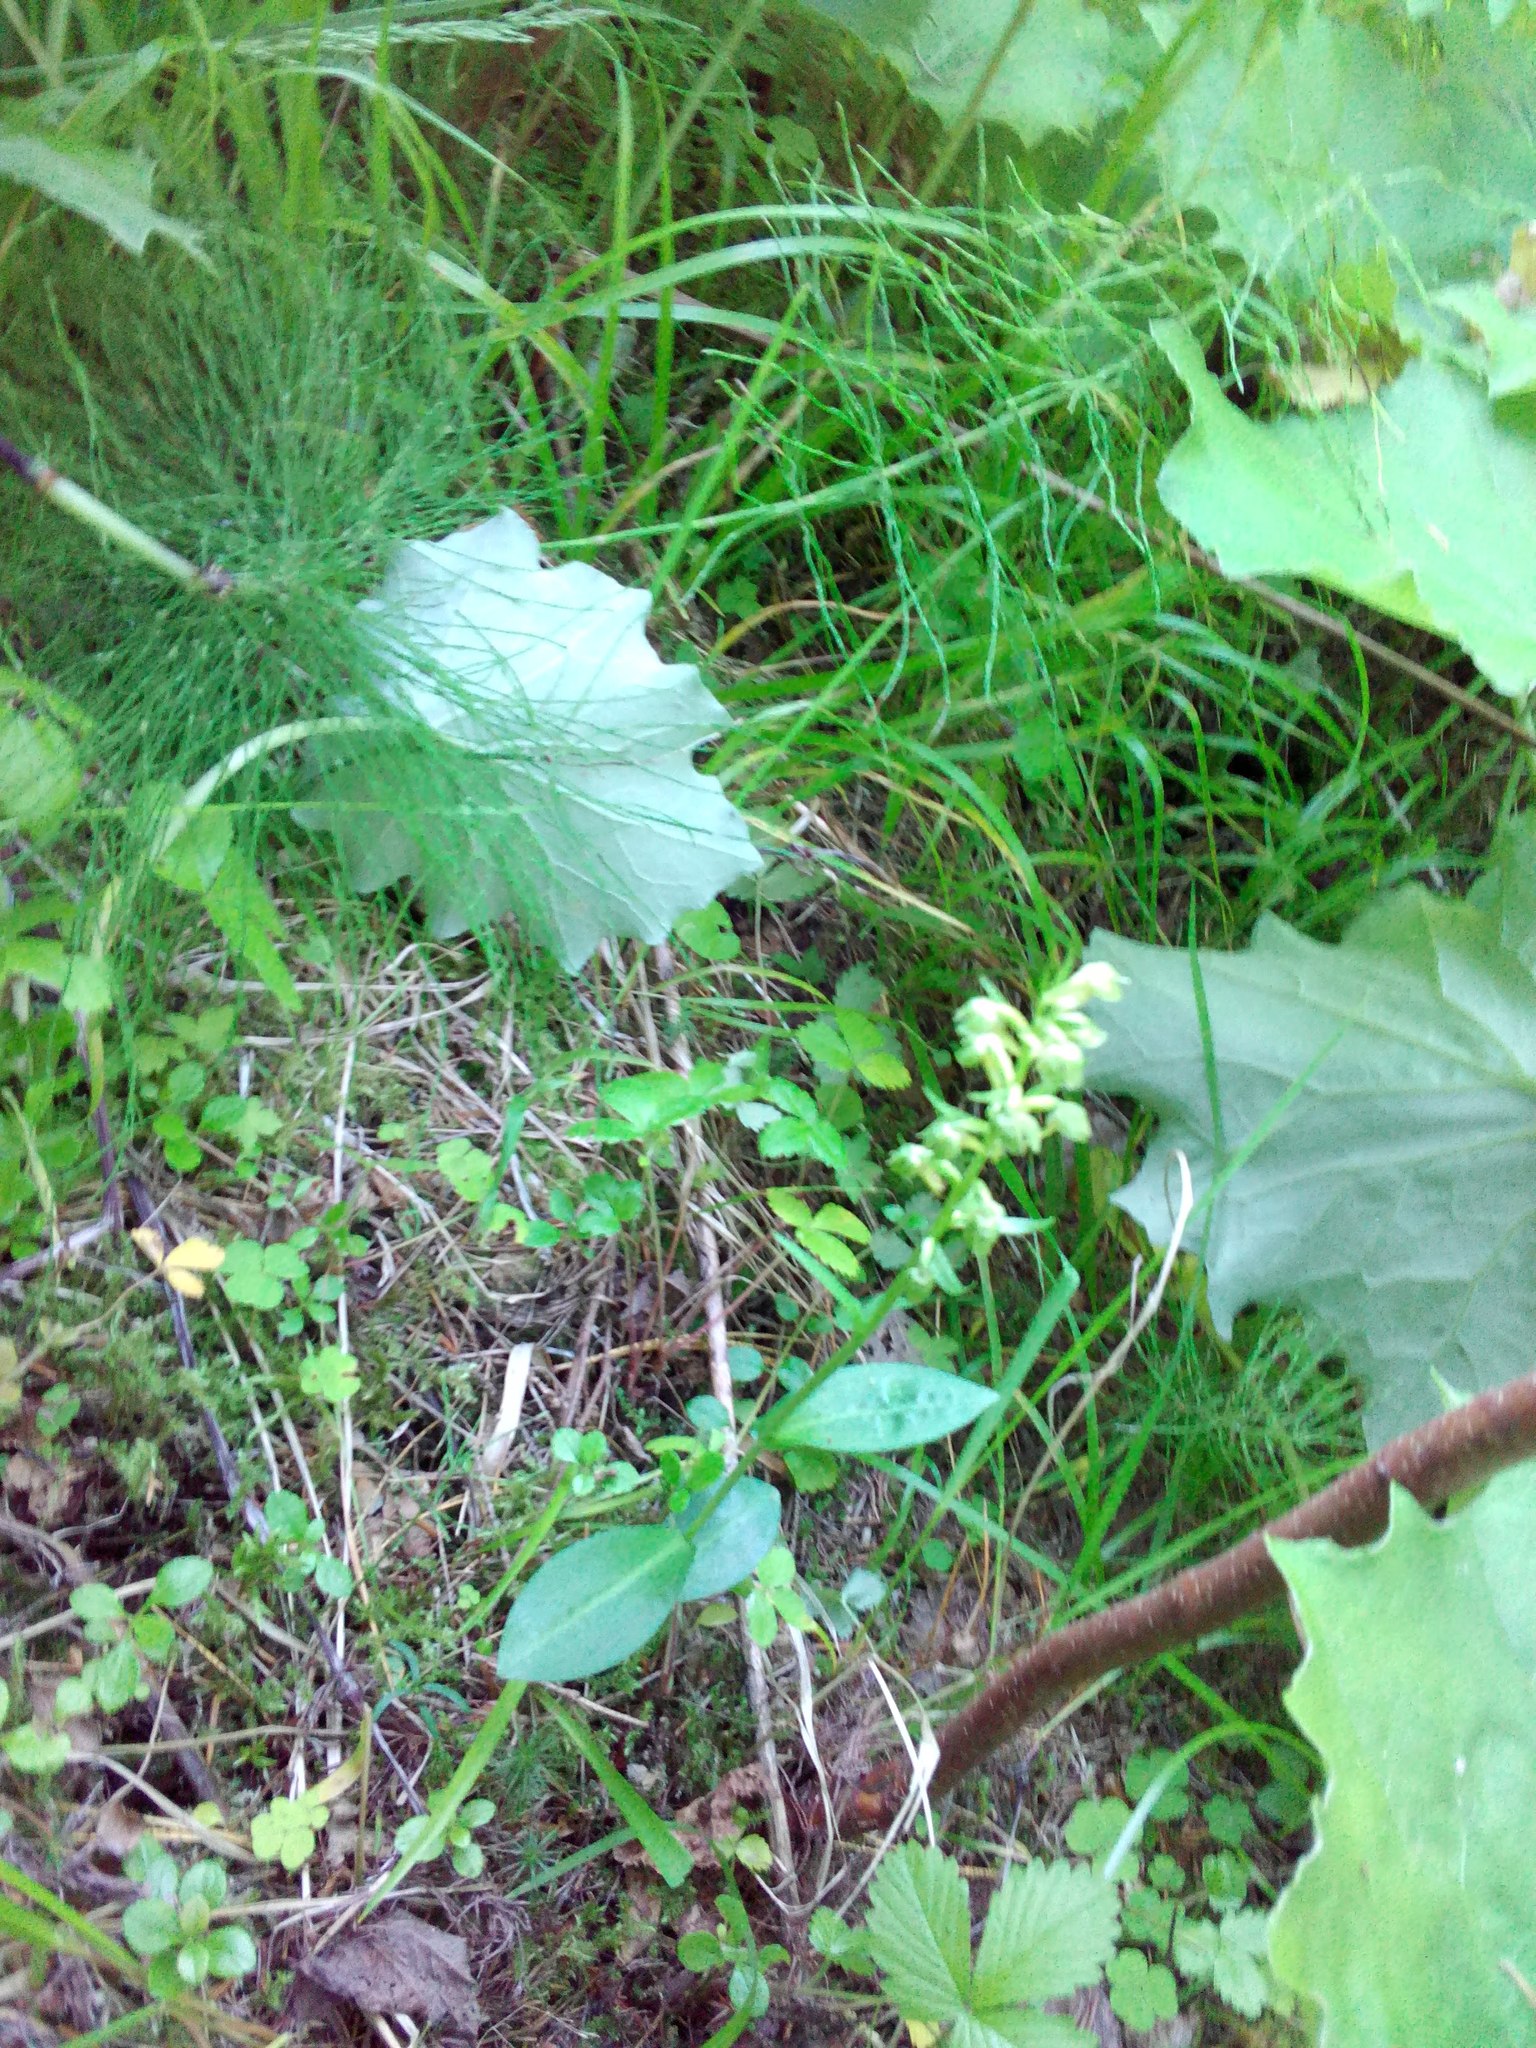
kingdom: Plantae
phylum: Tracheophyta
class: Liliopsida
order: Asparagales
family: Orchidaceae
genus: Dactylorhiza
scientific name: Dactylorhiza viridis
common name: Longbract frog orchid
